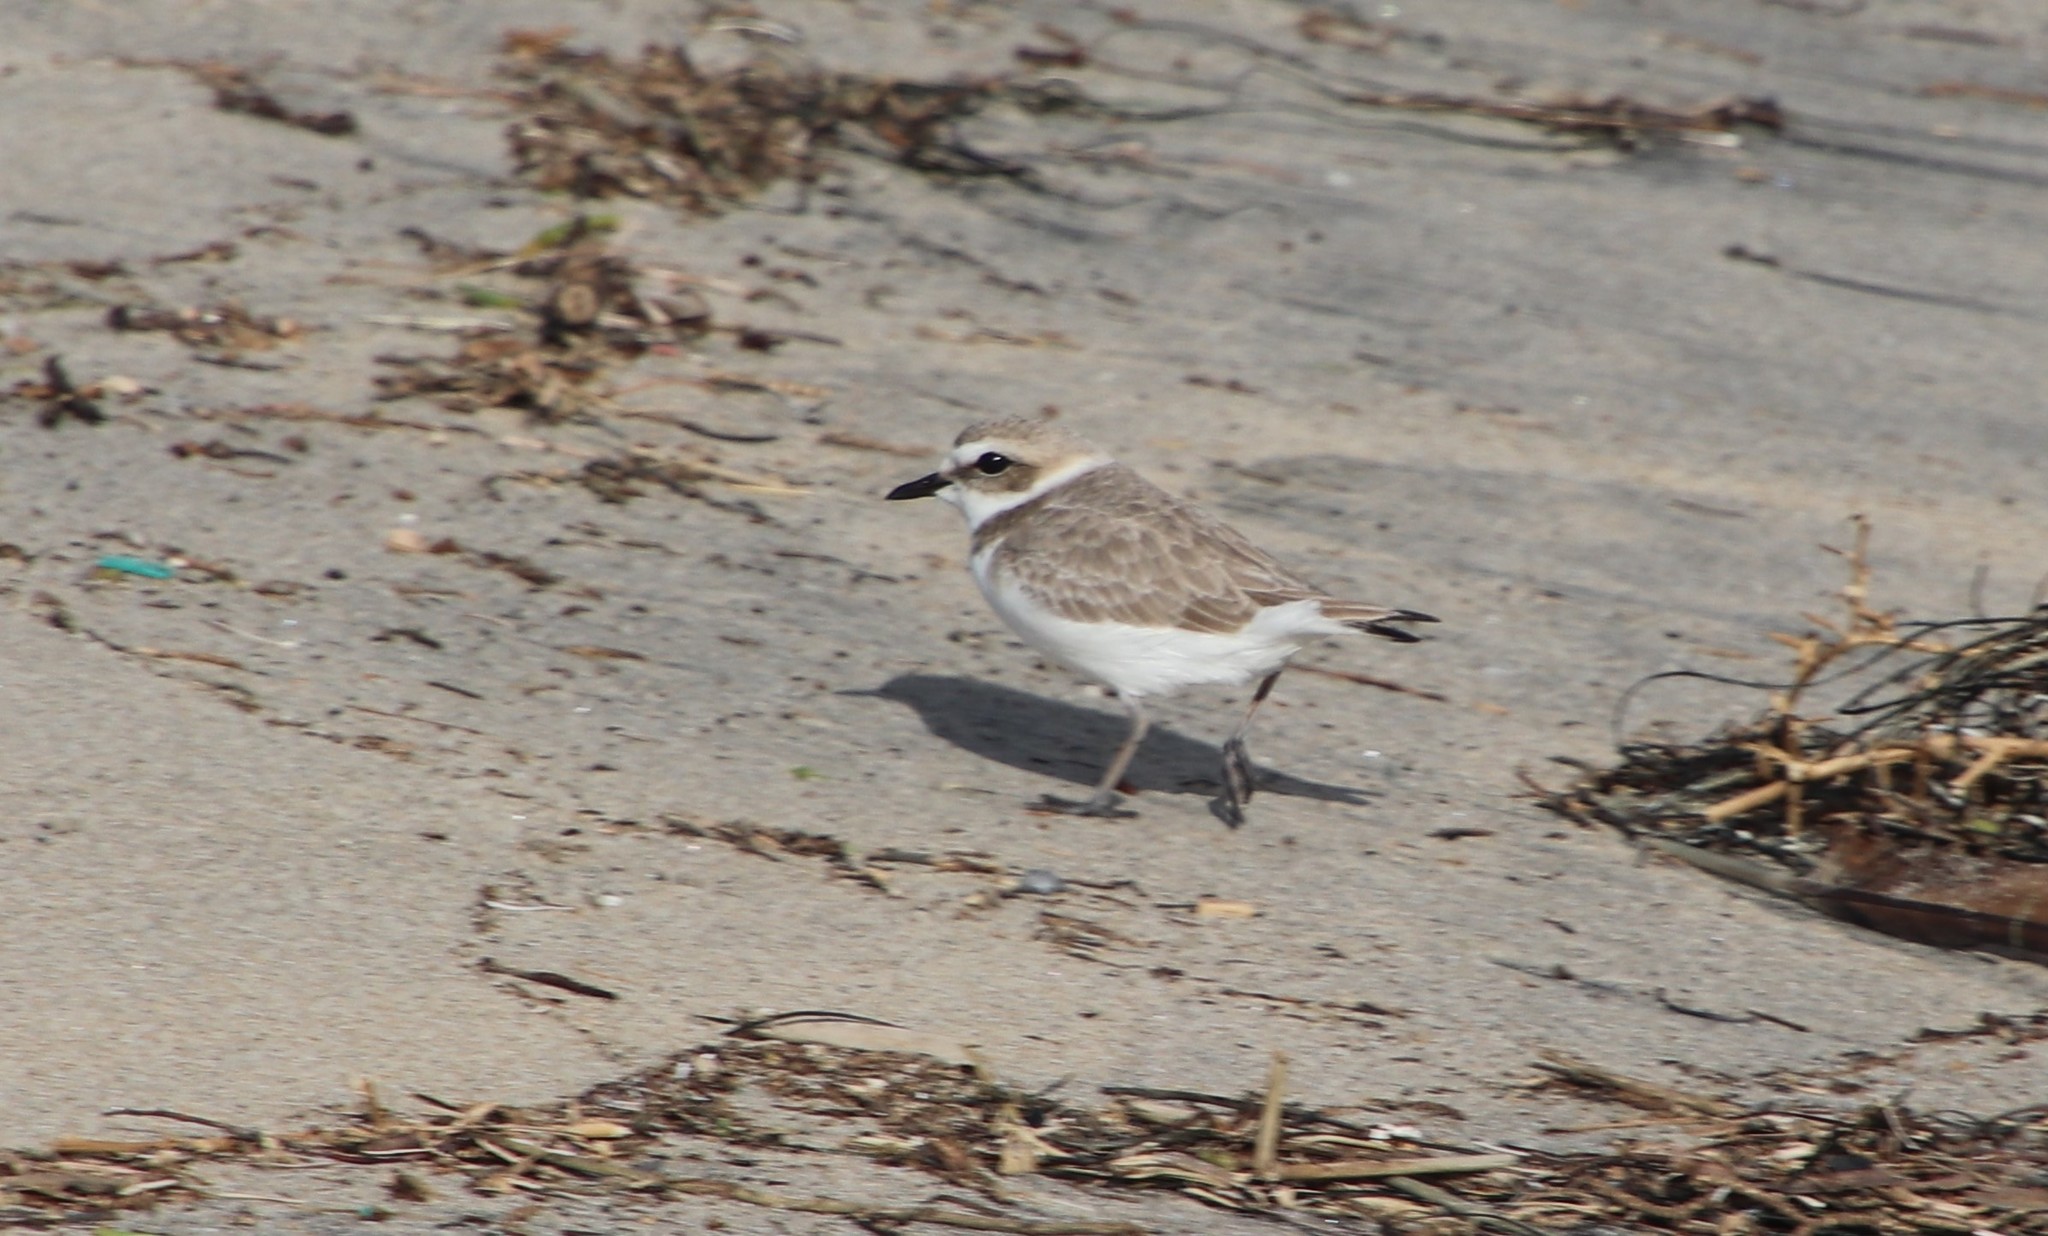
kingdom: Animalia
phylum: Chordata
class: Aves
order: Charadriiformes
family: Charadriidae
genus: Anarhynchus
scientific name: Anarhynchus
